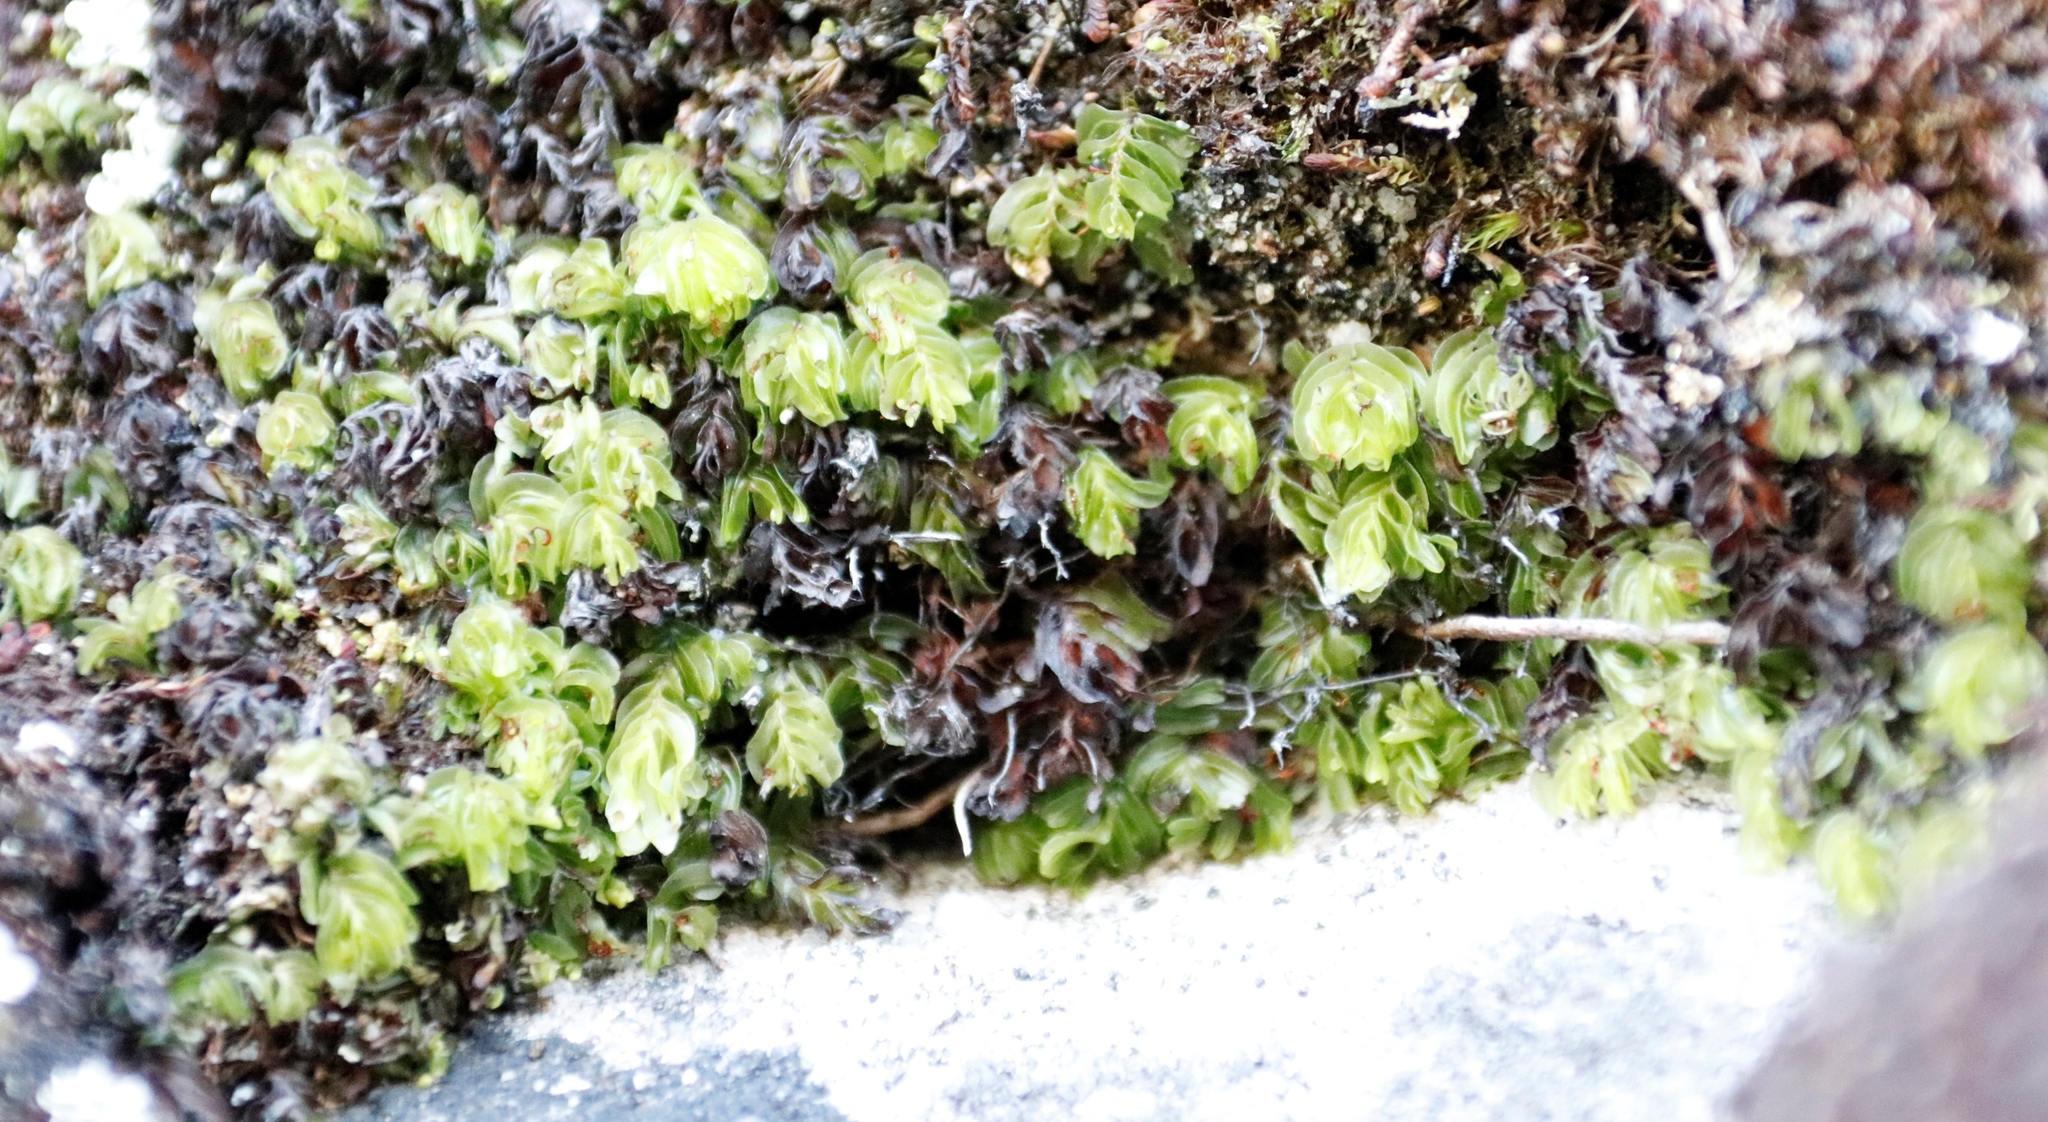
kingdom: Plantae
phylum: Tracheophyta
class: Polypodiopsida
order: Hymenophyllales
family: Hymenophyllaceae
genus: Hymenophyllum
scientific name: Hymenophyllum capense
